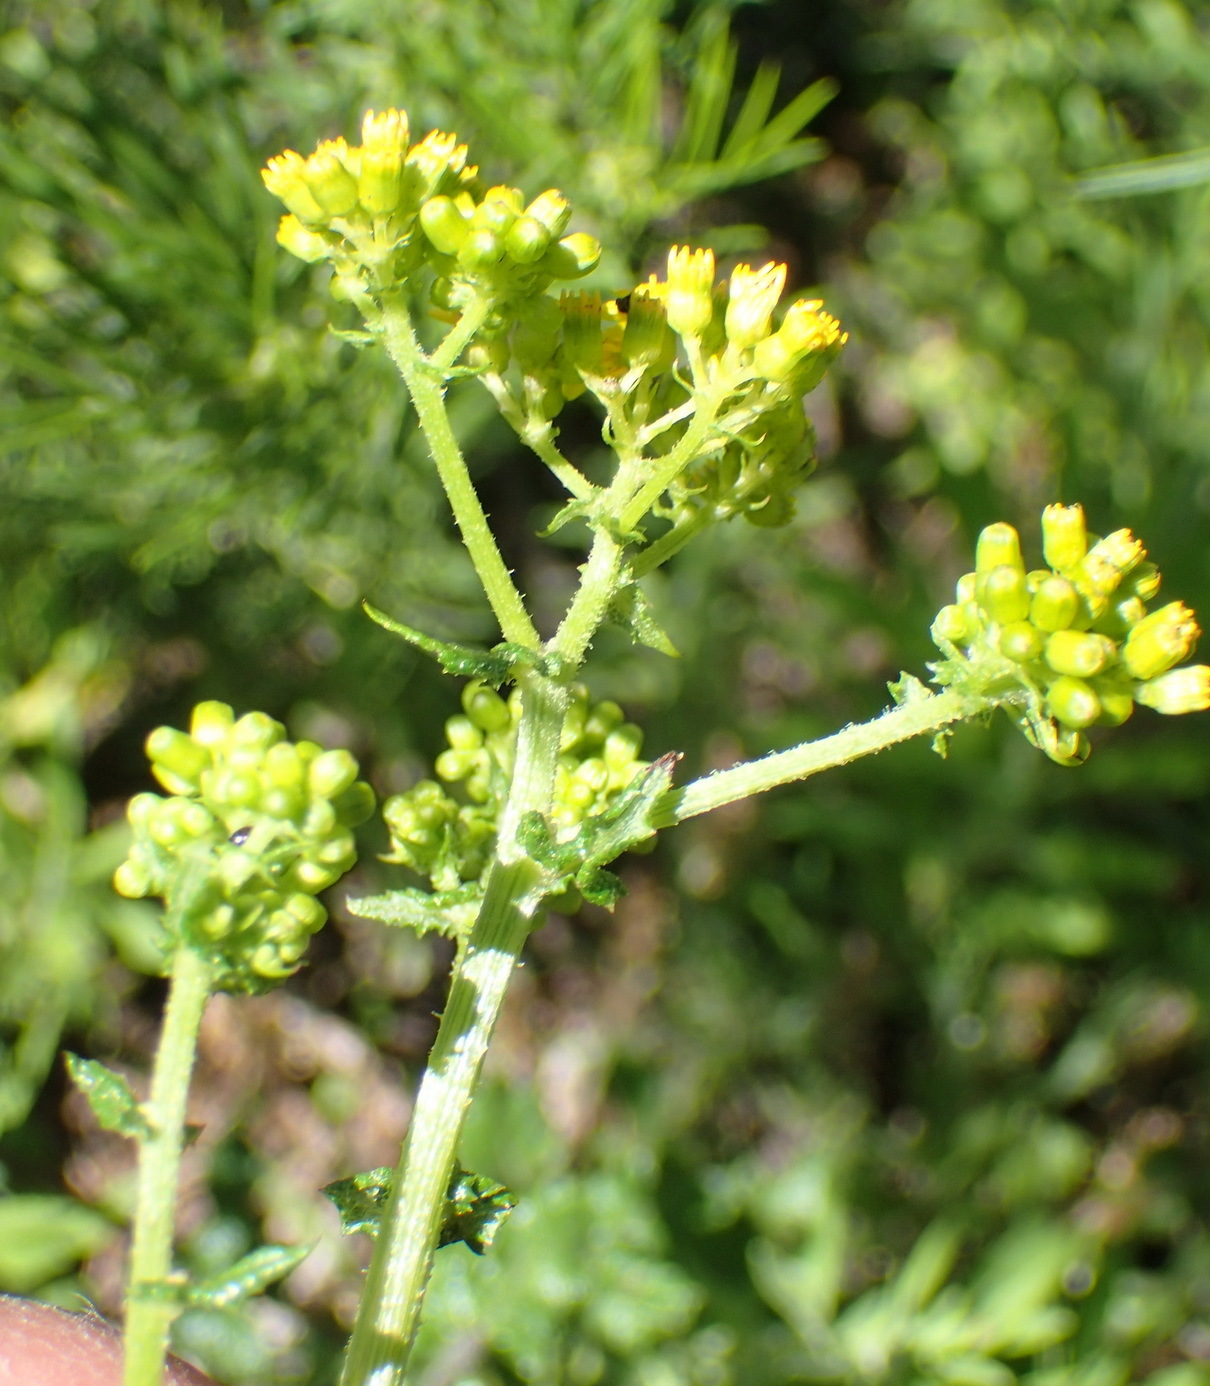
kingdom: Plantae
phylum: Tracheophyta
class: Magnoliopsida
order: Asterales
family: Asteraceae
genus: Senecio
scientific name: Senecio rigidus
